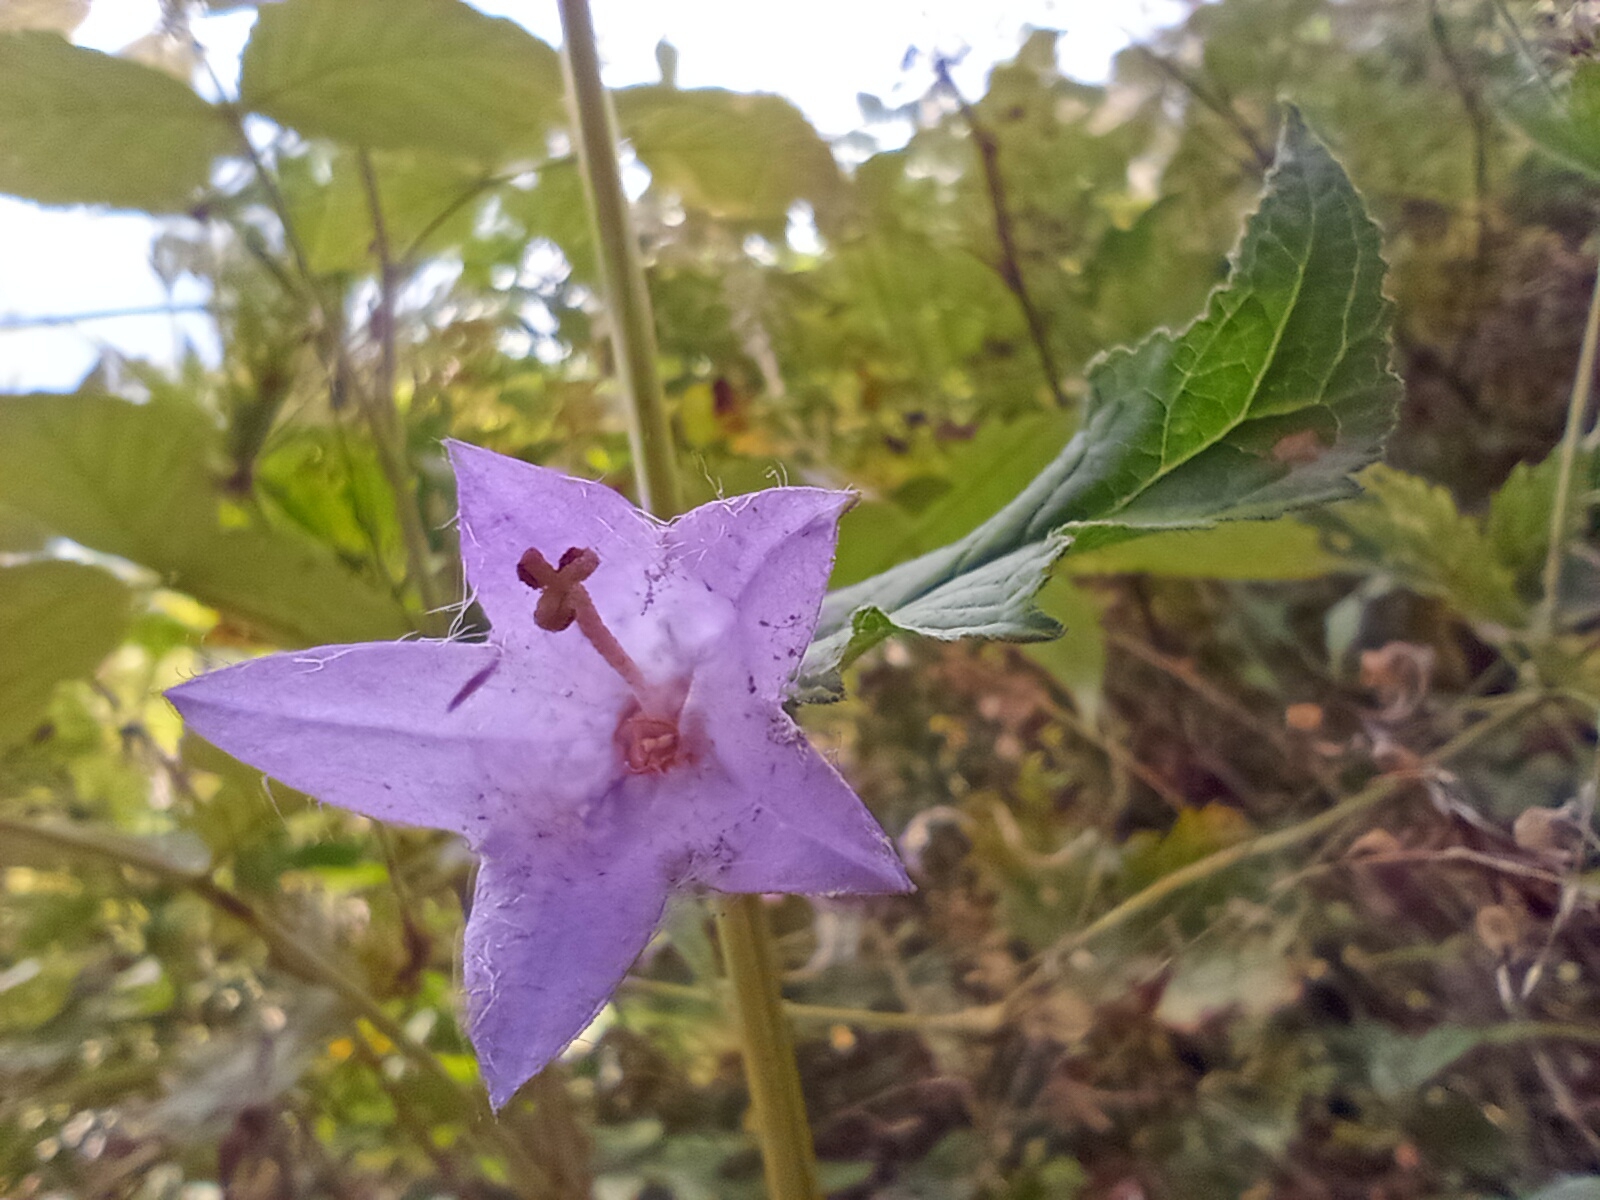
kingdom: Plantae
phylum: Tracheophyta
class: Magnoliopsida
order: Asterales
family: Campanulaceae
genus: Campanula
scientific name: Campanula trachelium
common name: Nettle-leaved bellflower
